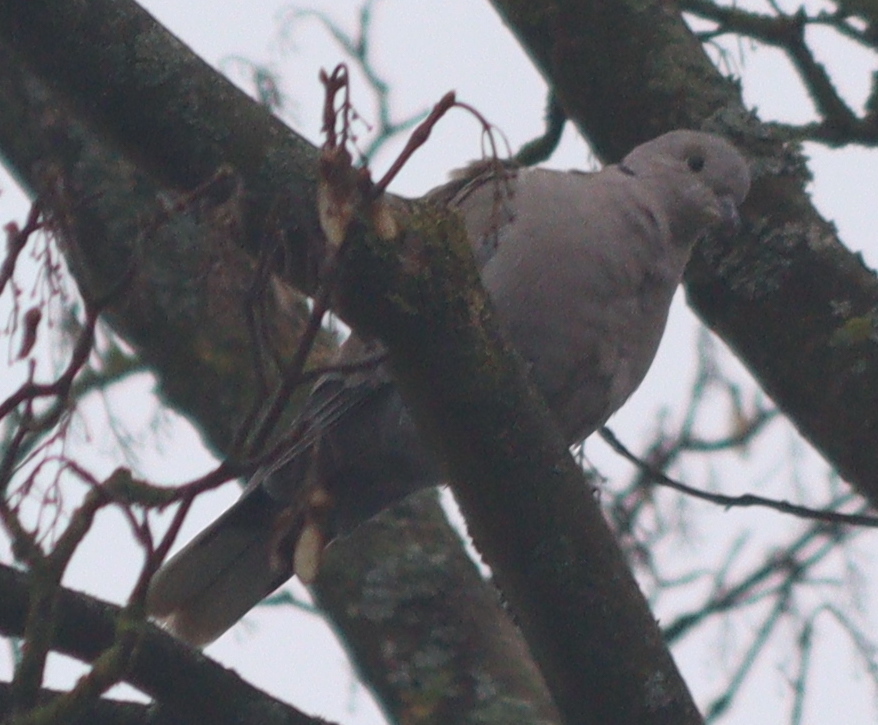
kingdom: Animalia
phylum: Chordata
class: Aves
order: Columbiformes
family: Columbidae
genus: Streptopelia
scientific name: Streptopelia decaocto
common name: Eurasian collared dove
